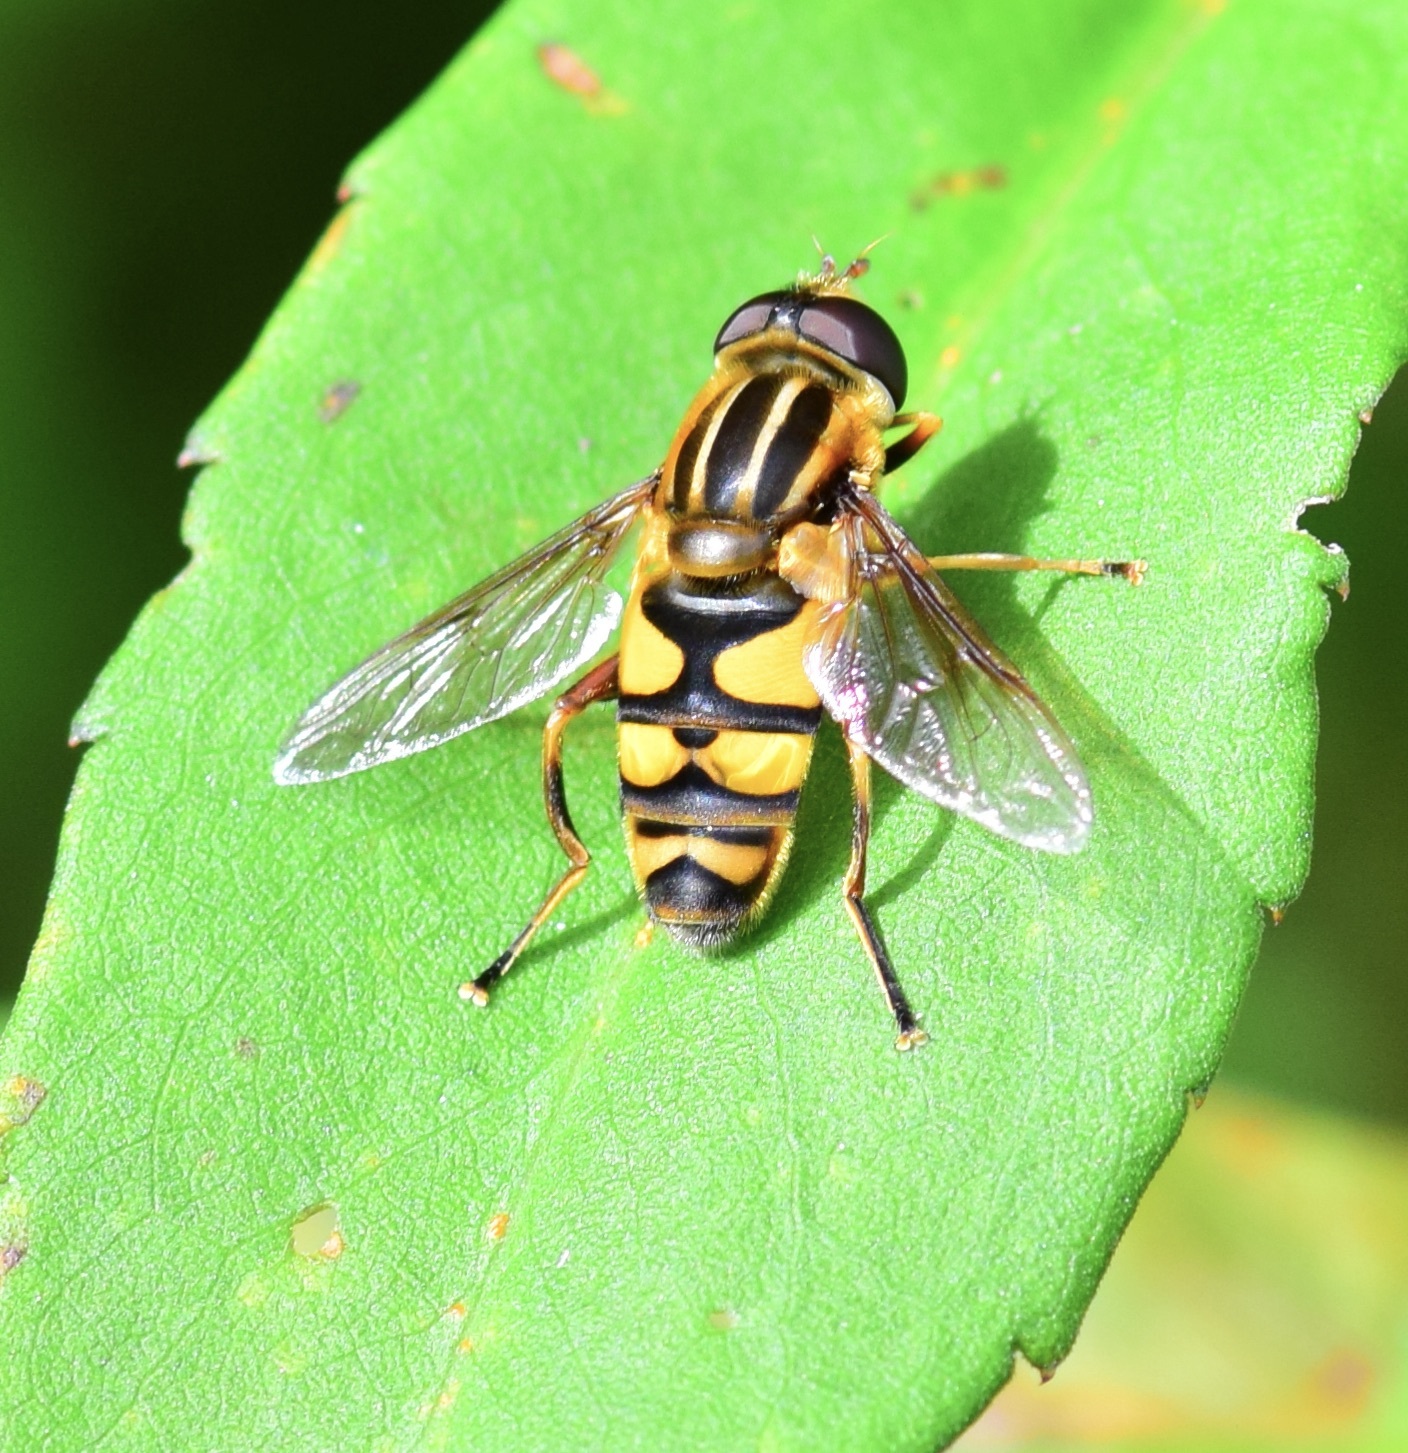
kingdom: Animalia
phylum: Arthropoda
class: Insecta
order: Diptera
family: Syrphidae
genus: Helophilus
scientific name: Helophilus fasciatus
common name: Narrow-headed marsh fly
